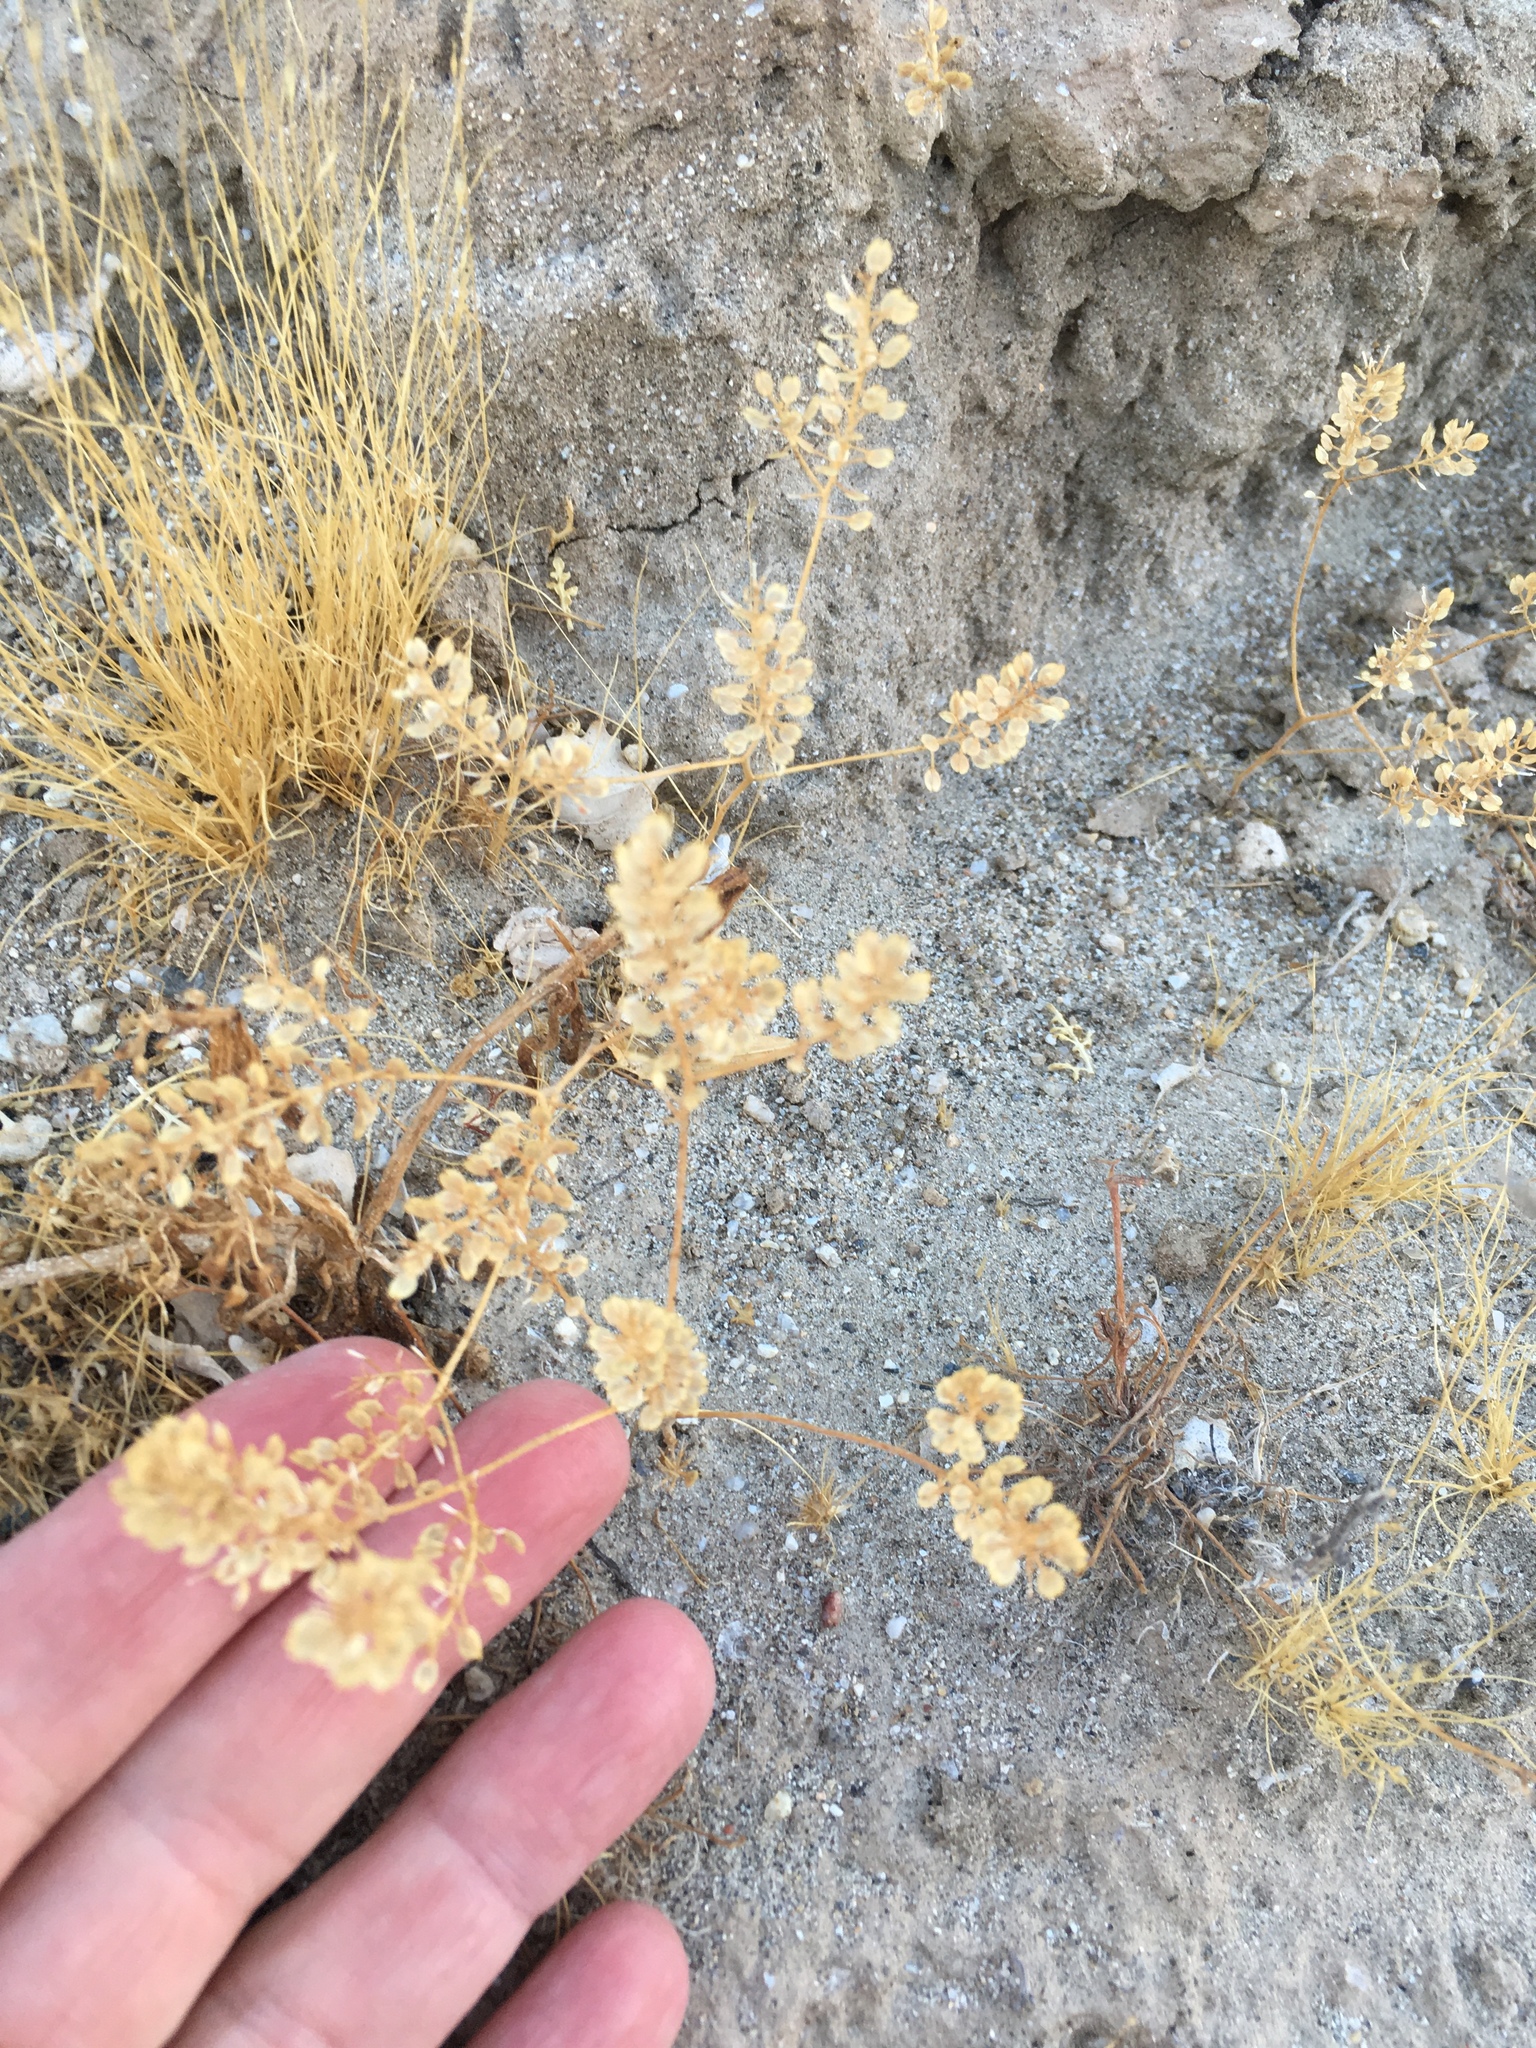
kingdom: Plantae
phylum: Tracheophyta
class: Magnoliopsida
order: Brassicales
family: Brassicaceae
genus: Lepidium
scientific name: Lepidium lasiocarpum
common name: Hairy-pod pepperwort
